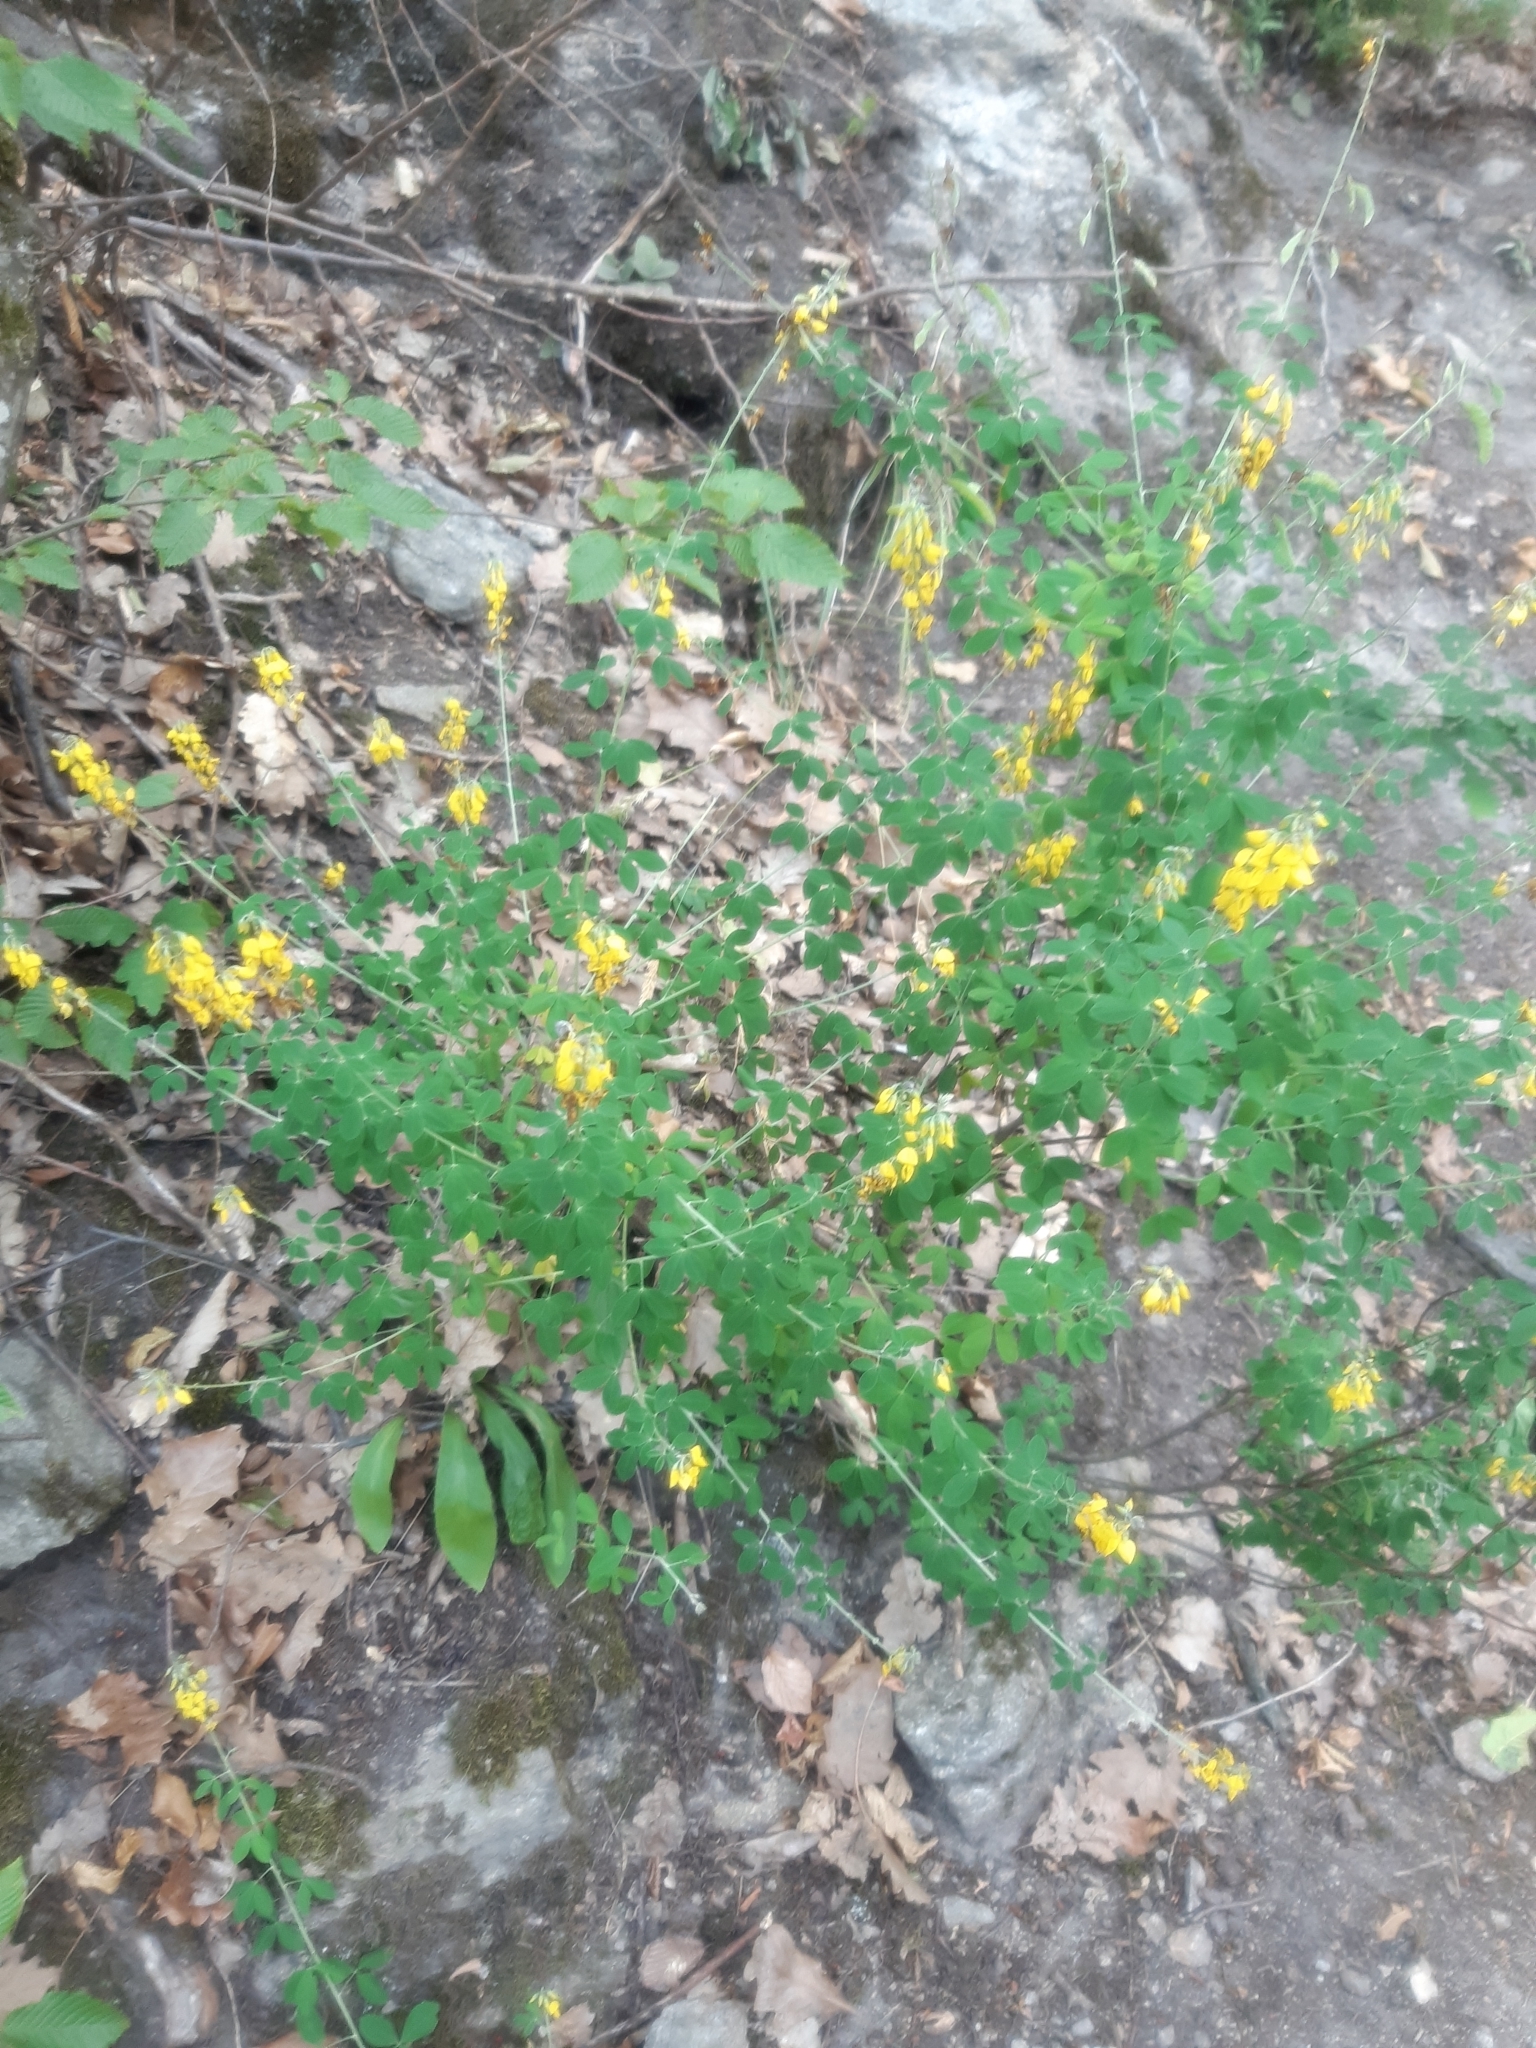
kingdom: Plantae
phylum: Tracheophyta
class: Magnoliopsida
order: Fabales
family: Fabaceae
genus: Cytisus
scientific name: Cytisus nigricans
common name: Black broom
